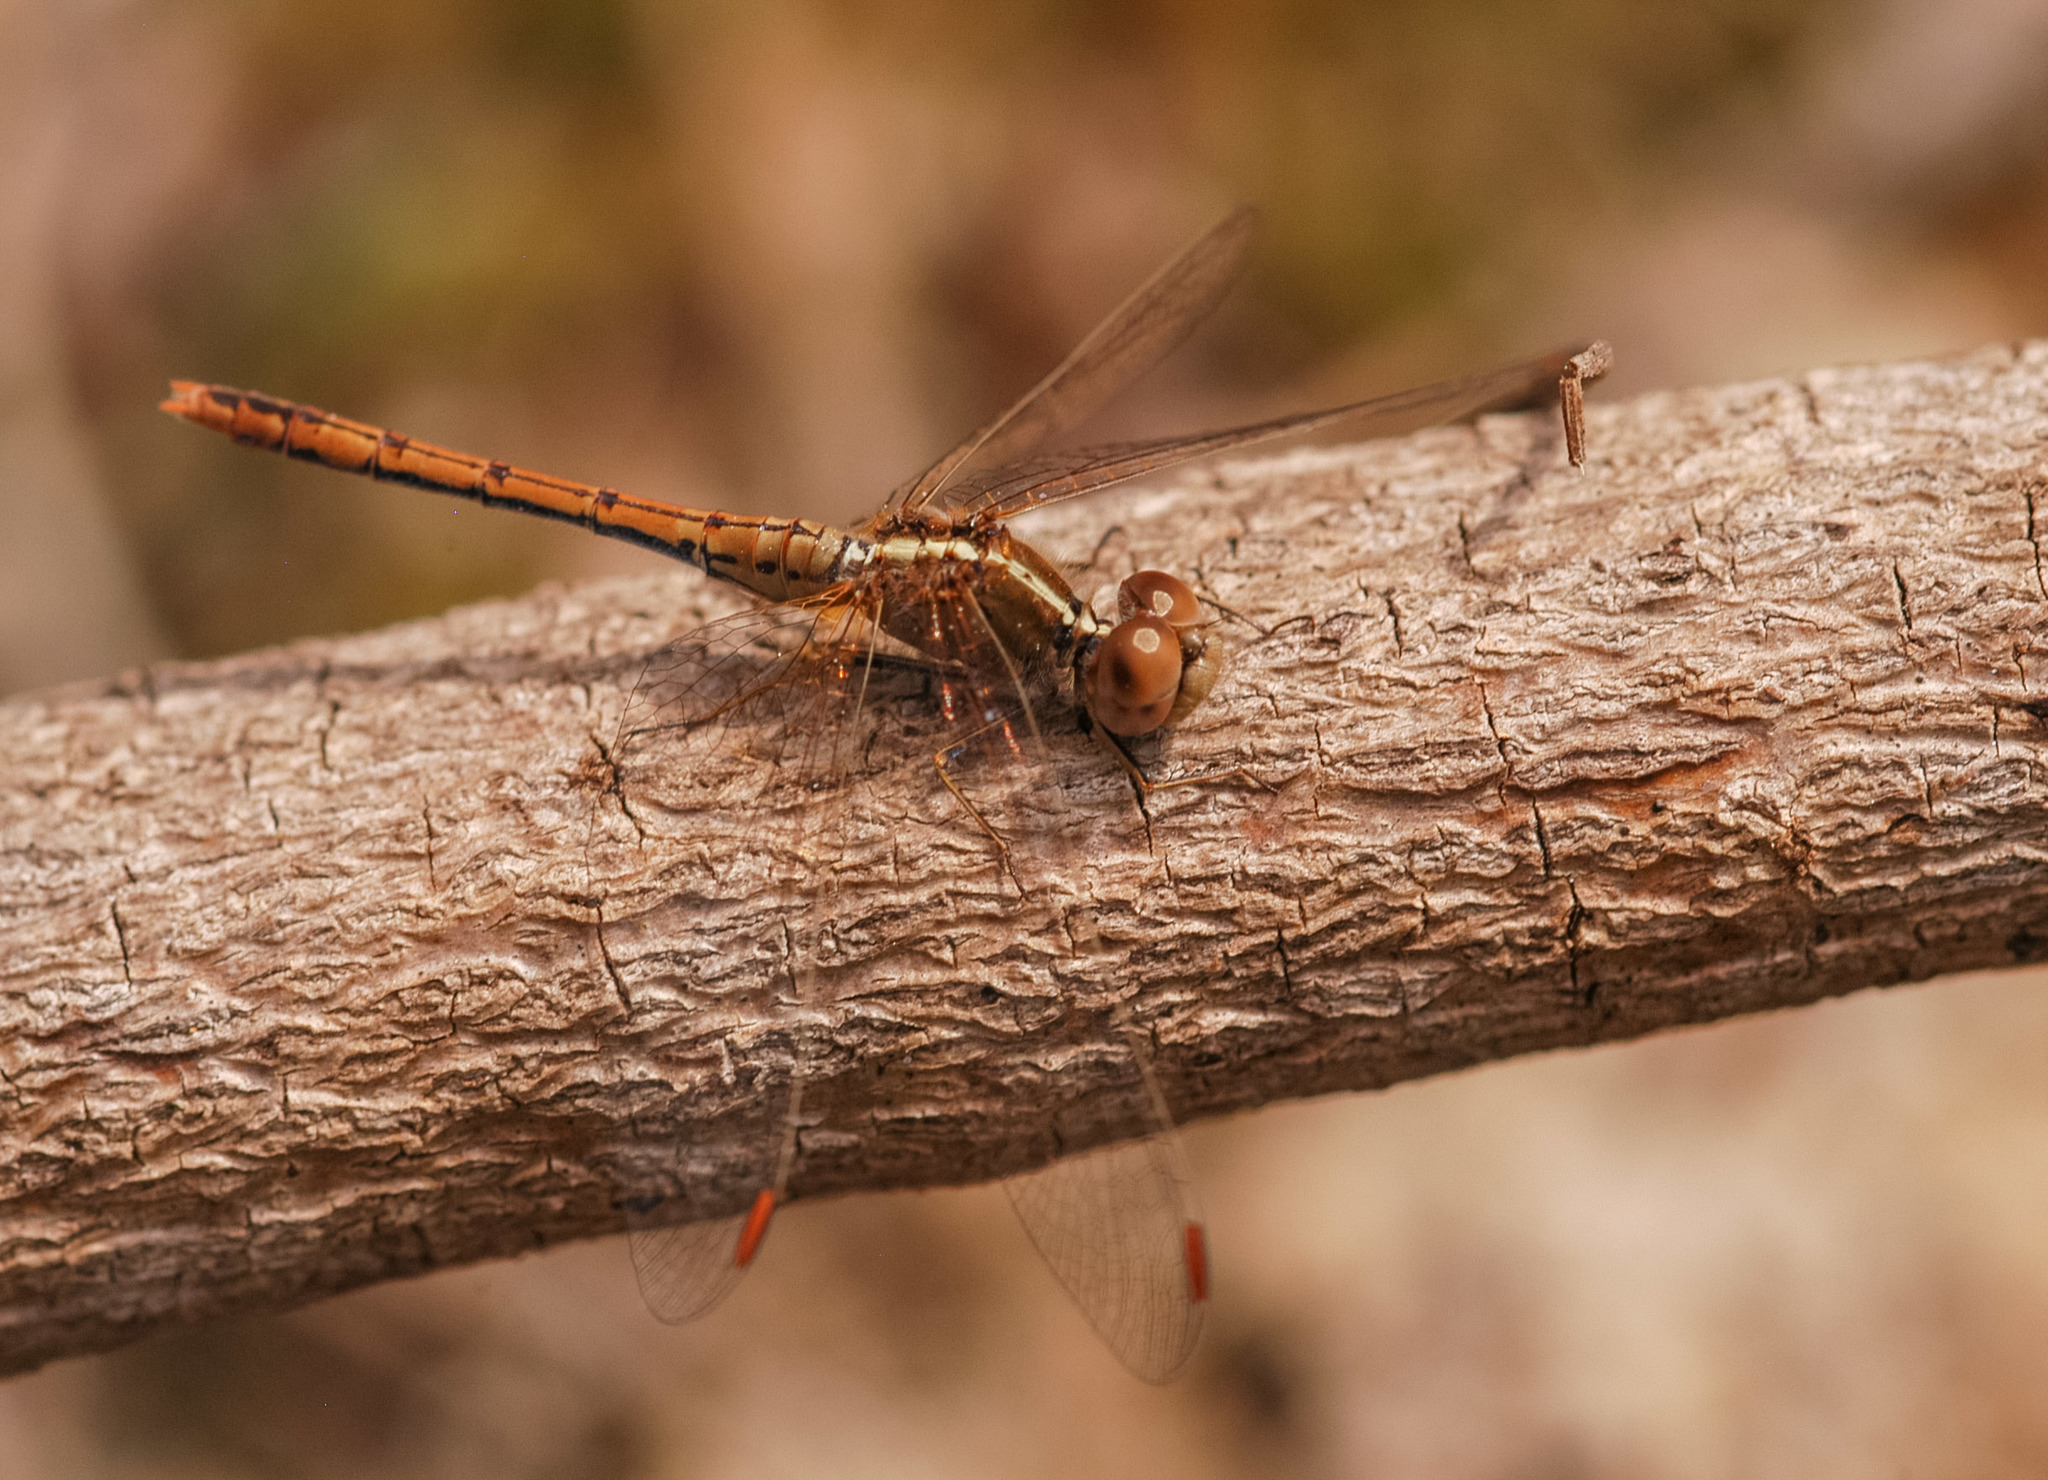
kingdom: Animalia
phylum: Arthropoda
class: Insecta
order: Odonata
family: Libellulidae
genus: Diplacodes
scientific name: Diplacodes bipunctata
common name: Red percher dragonfly
